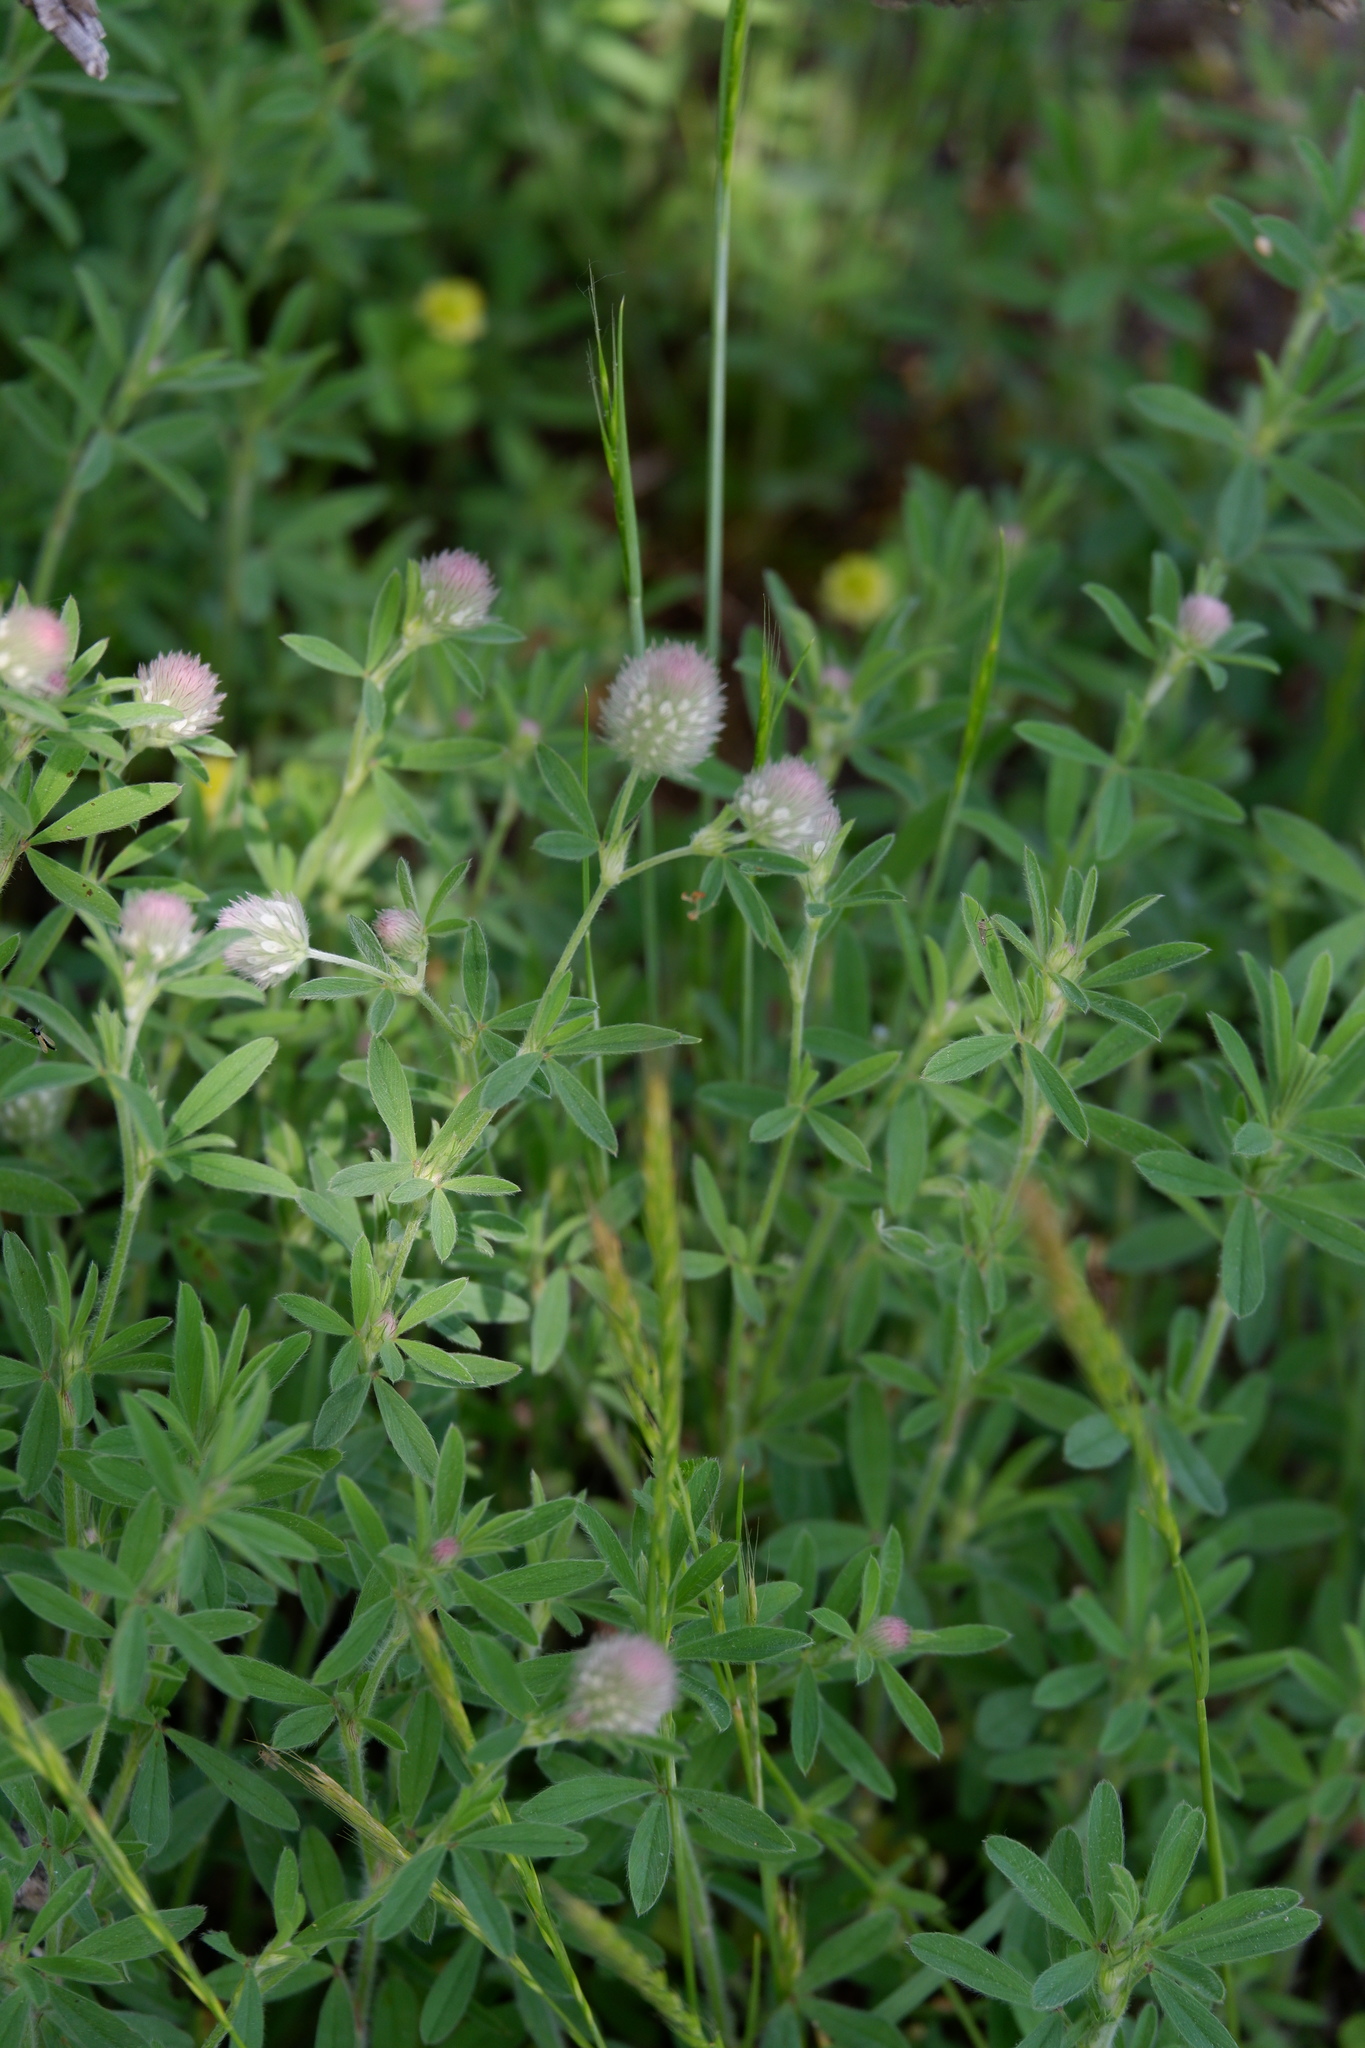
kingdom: Plantae
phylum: Tracheophyta
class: Magnoliopsida
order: Fabales
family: Fabaceae
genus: Trifolium
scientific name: Trifolium arvense
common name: Hare's-foot clover
